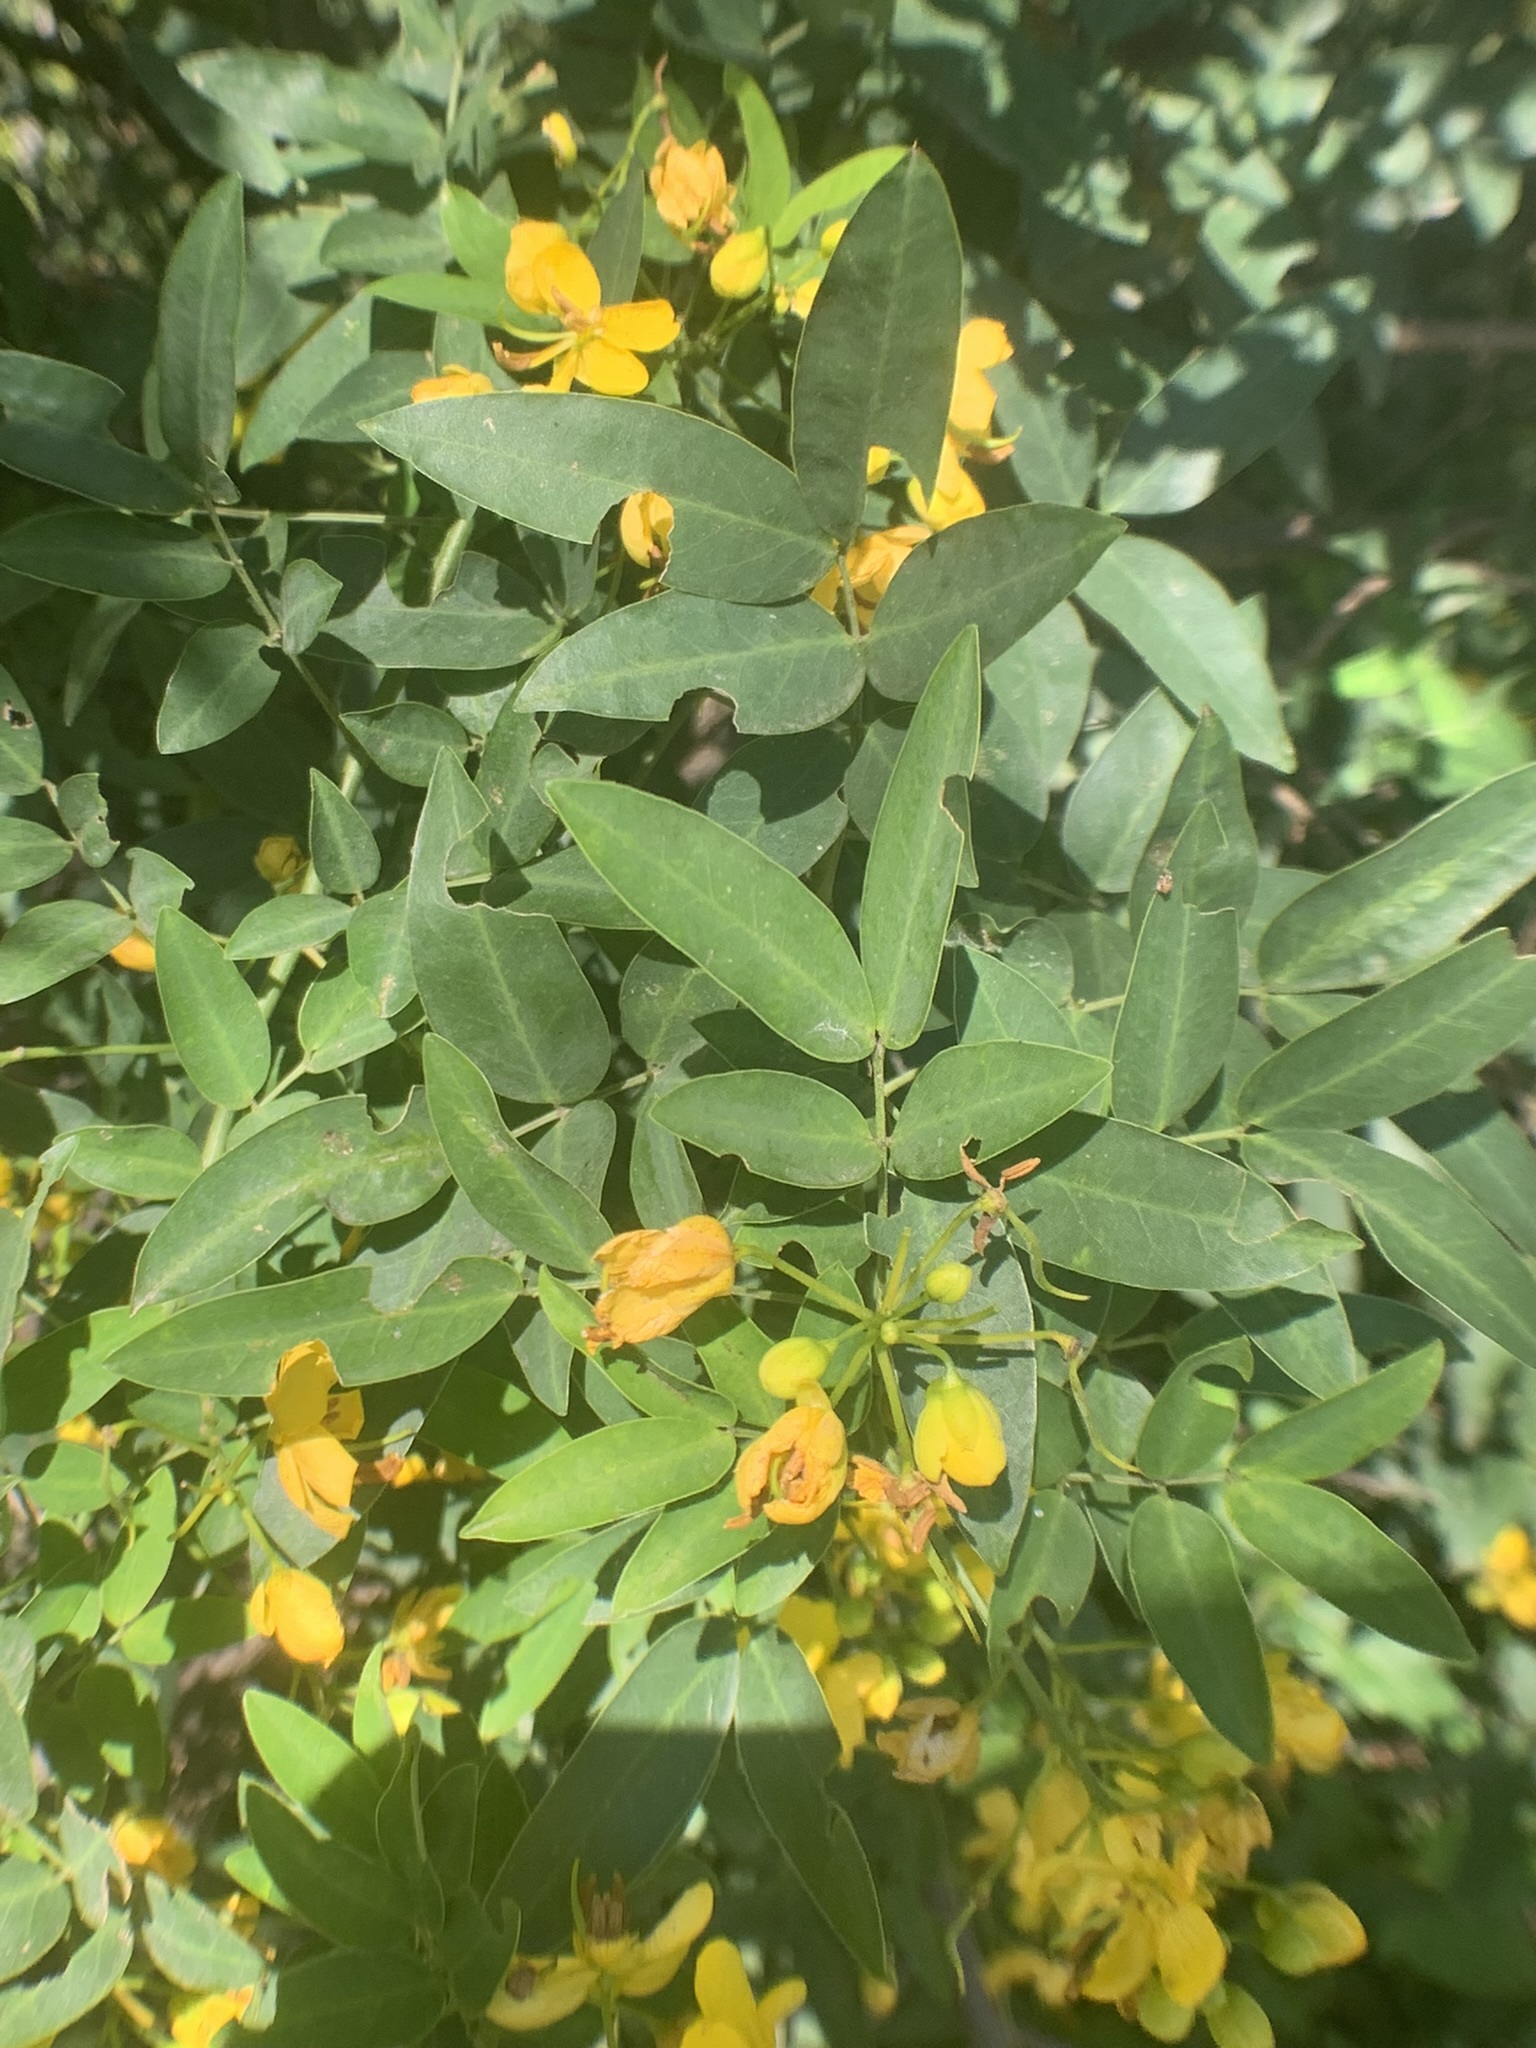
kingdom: Plantae
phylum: Tracheophyta
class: Magnoliopsida
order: Fabales
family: Fabaceae
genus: Senna
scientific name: Senna corymbosa
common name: Argentine senna
